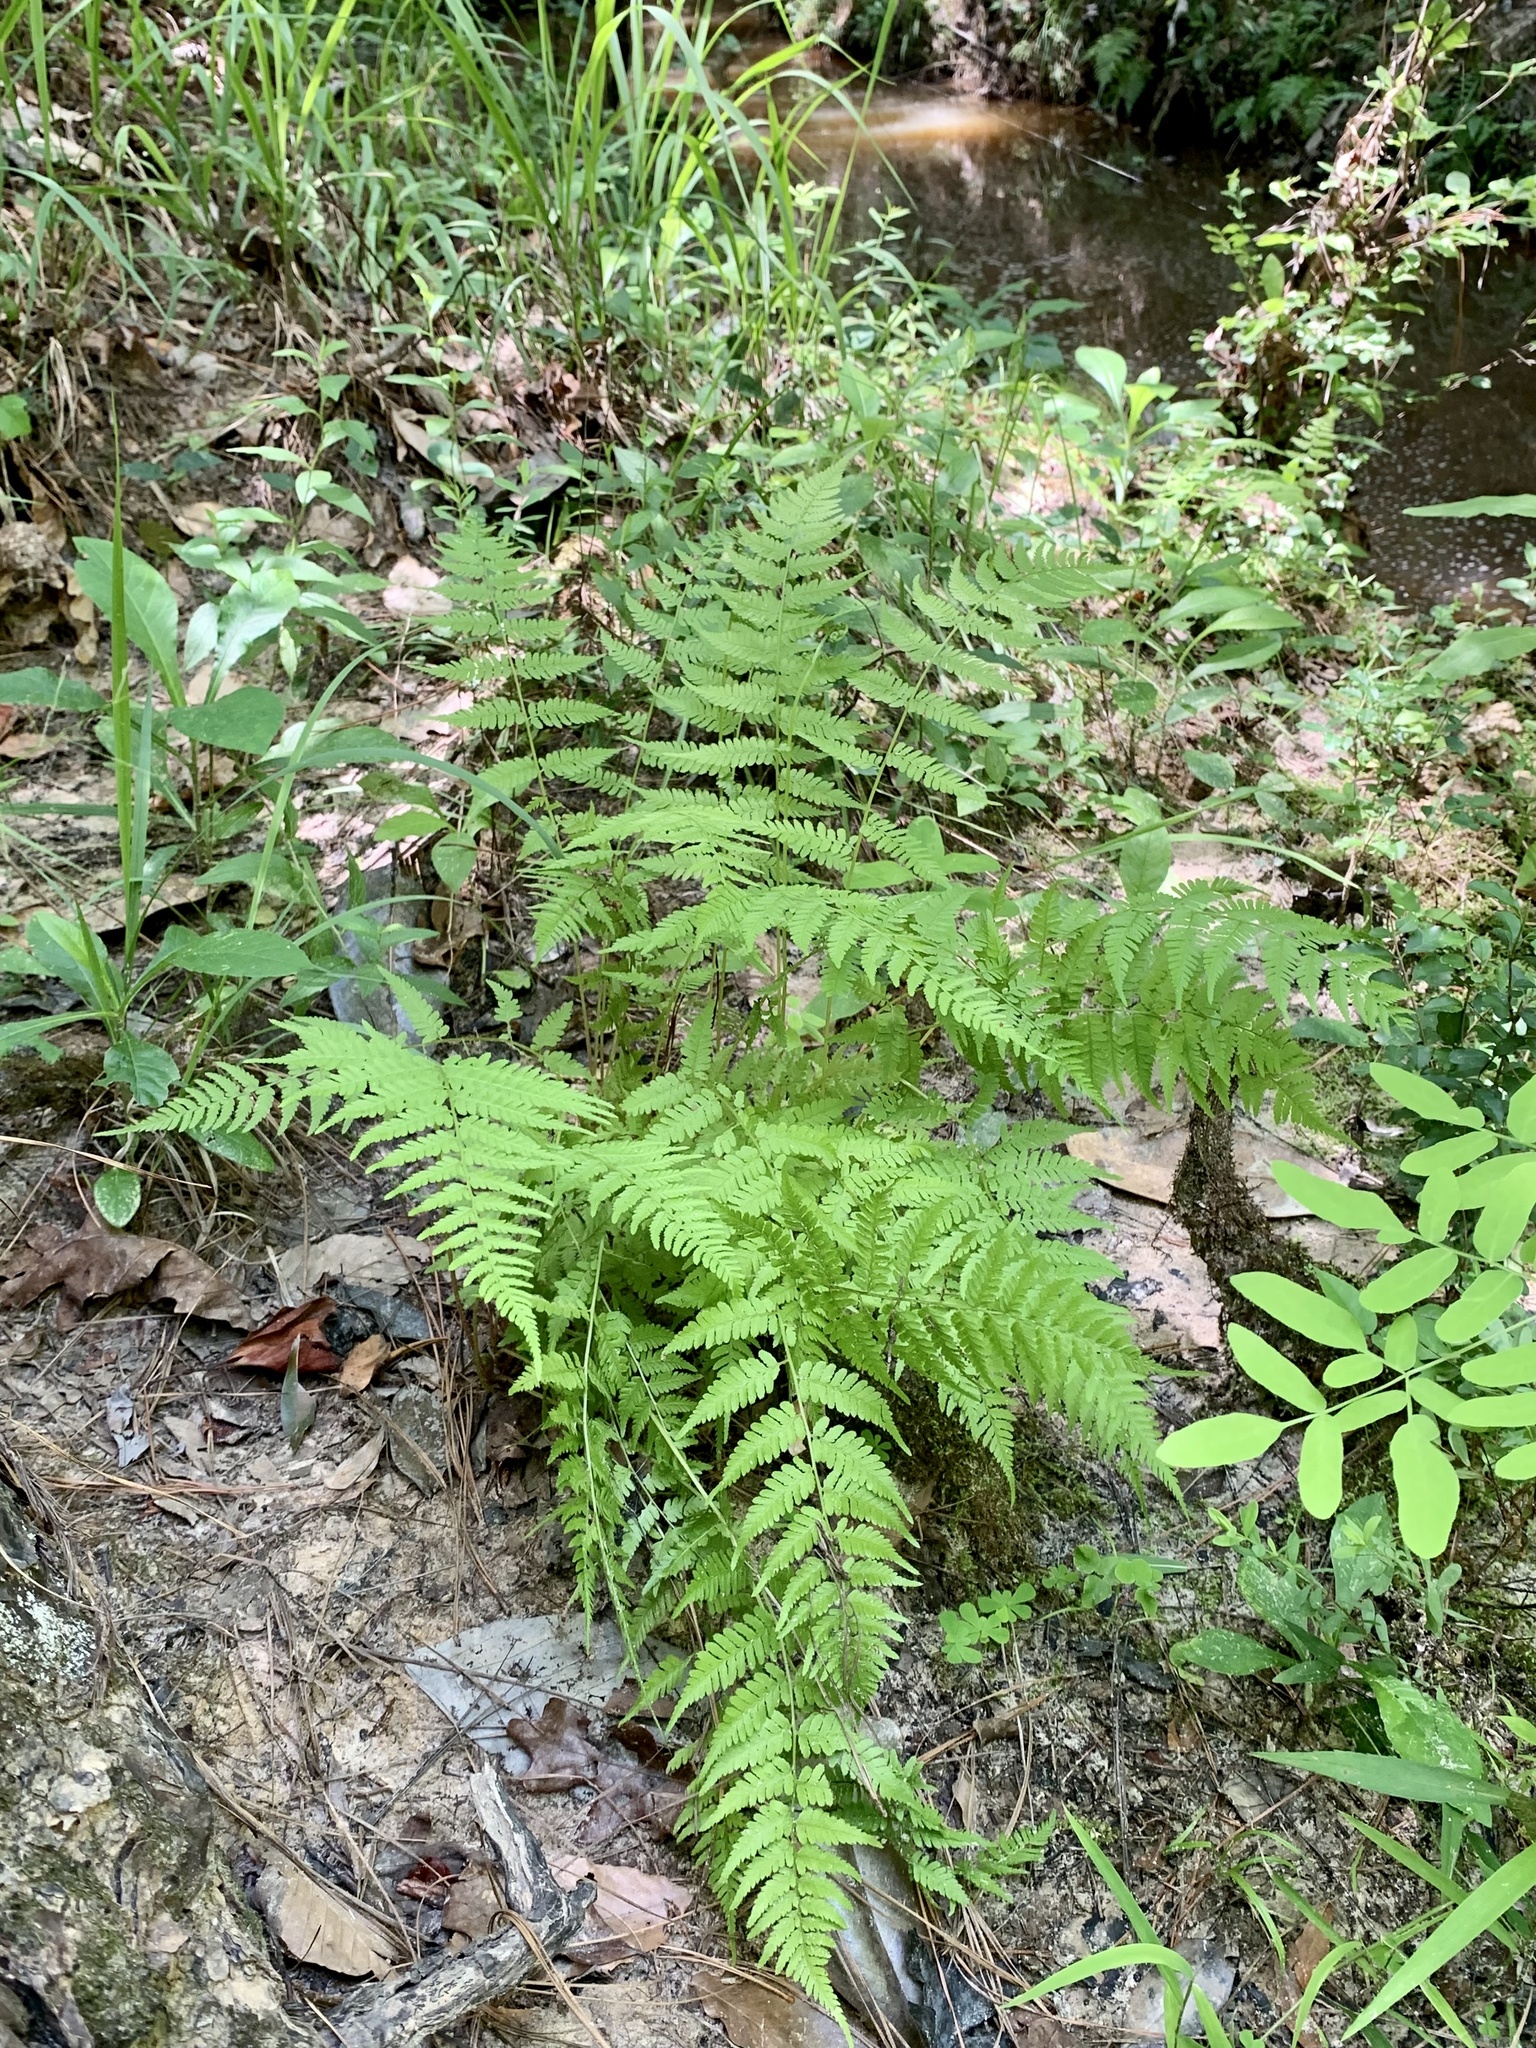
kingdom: Plantae
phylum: Tracheophyta
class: Polypodiopsida
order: Polypodiales
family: Athyriaceae
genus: Athyrium
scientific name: Athyrium asplenioides
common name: Southern lady fern
